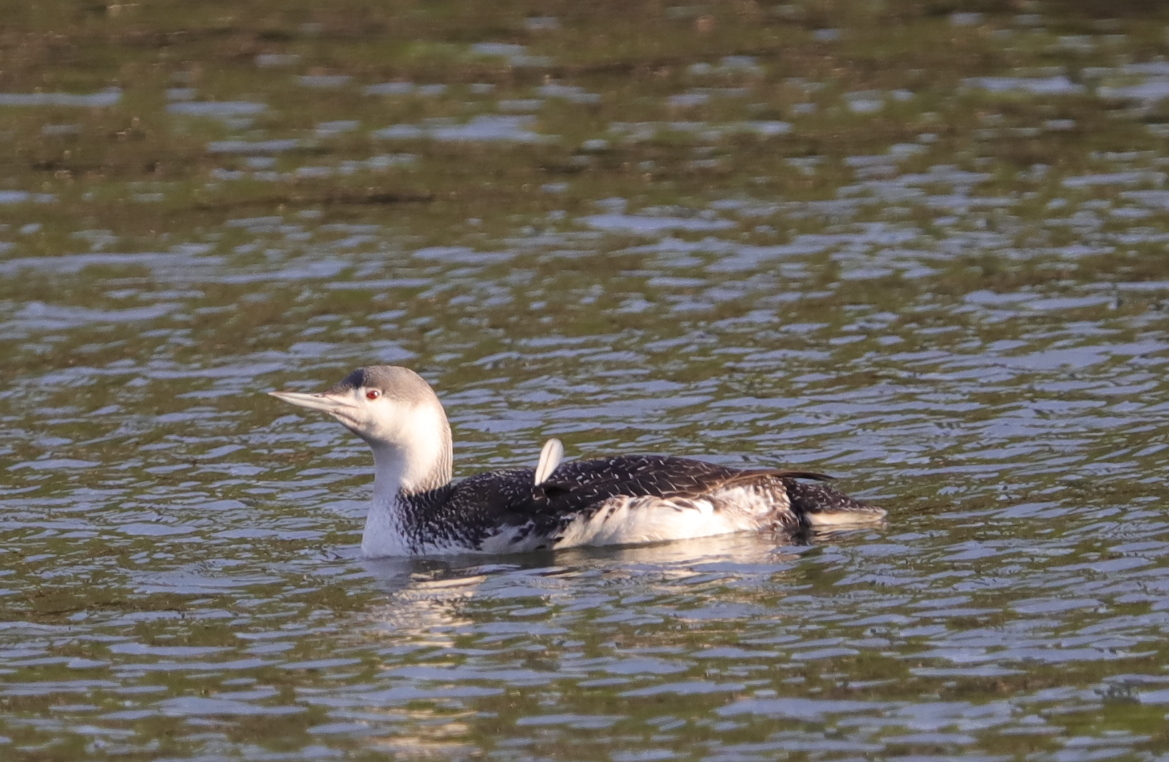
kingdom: Animalia
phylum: Chordata
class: Aves
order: Gaviiformes
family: Gaviidae
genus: Gavia
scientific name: Gavia stellata
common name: Red-throated loon
